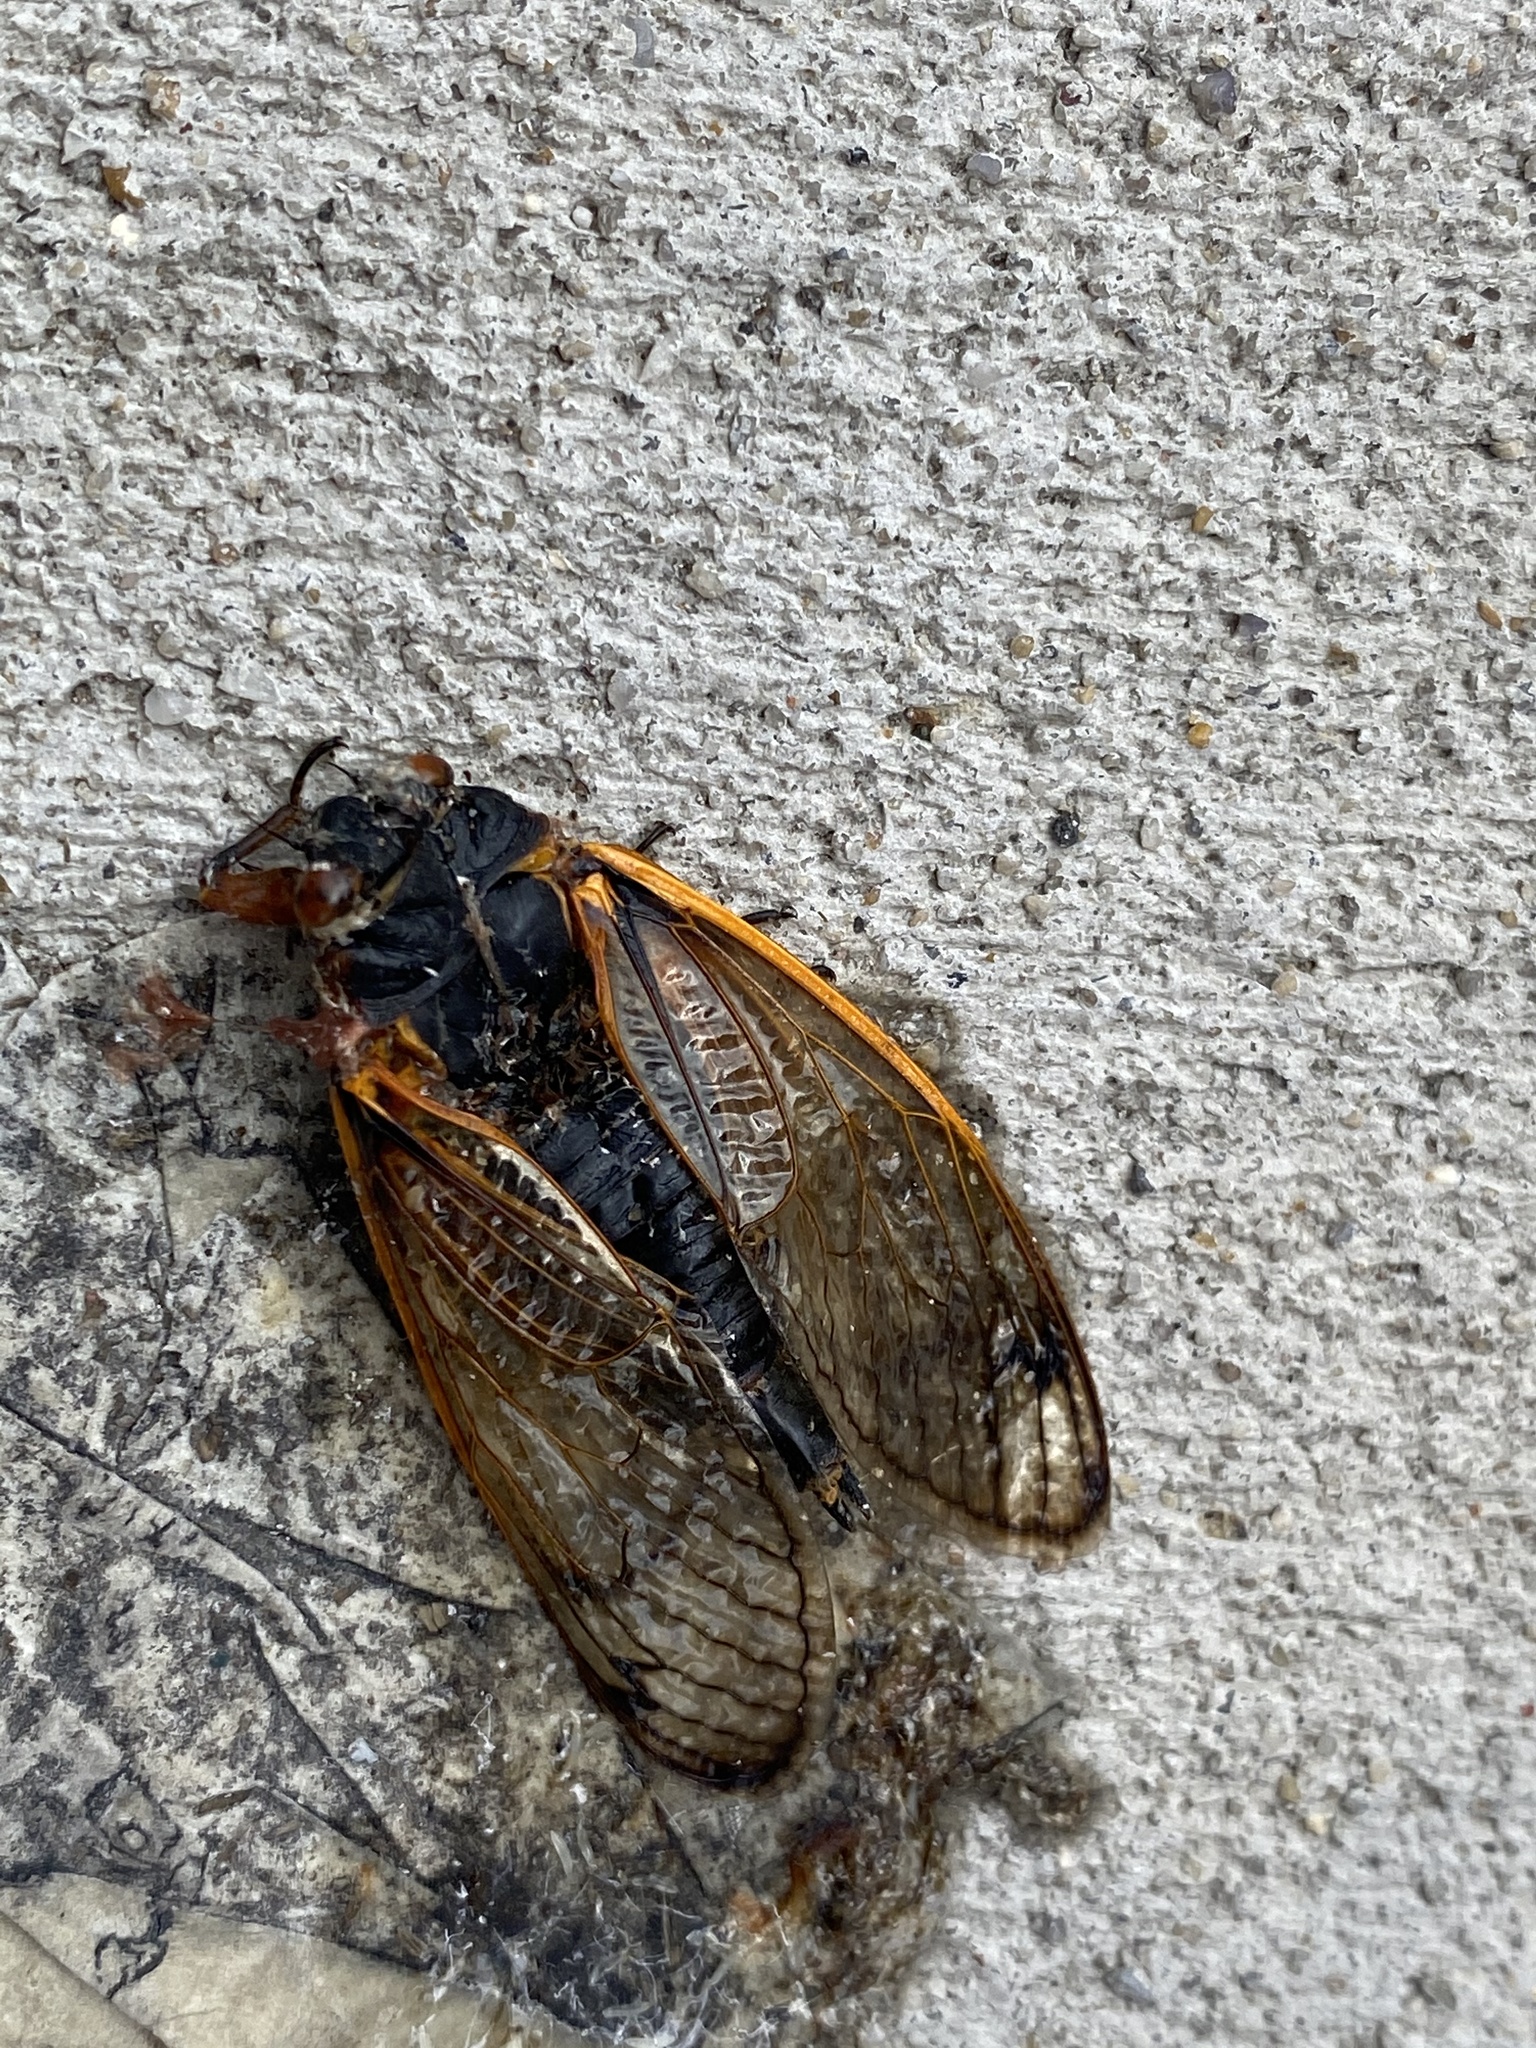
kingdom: Animalia
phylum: Arthropoda
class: Insecta
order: Hemiptera
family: Cicadidae
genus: Magicicada
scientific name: Magicicada
